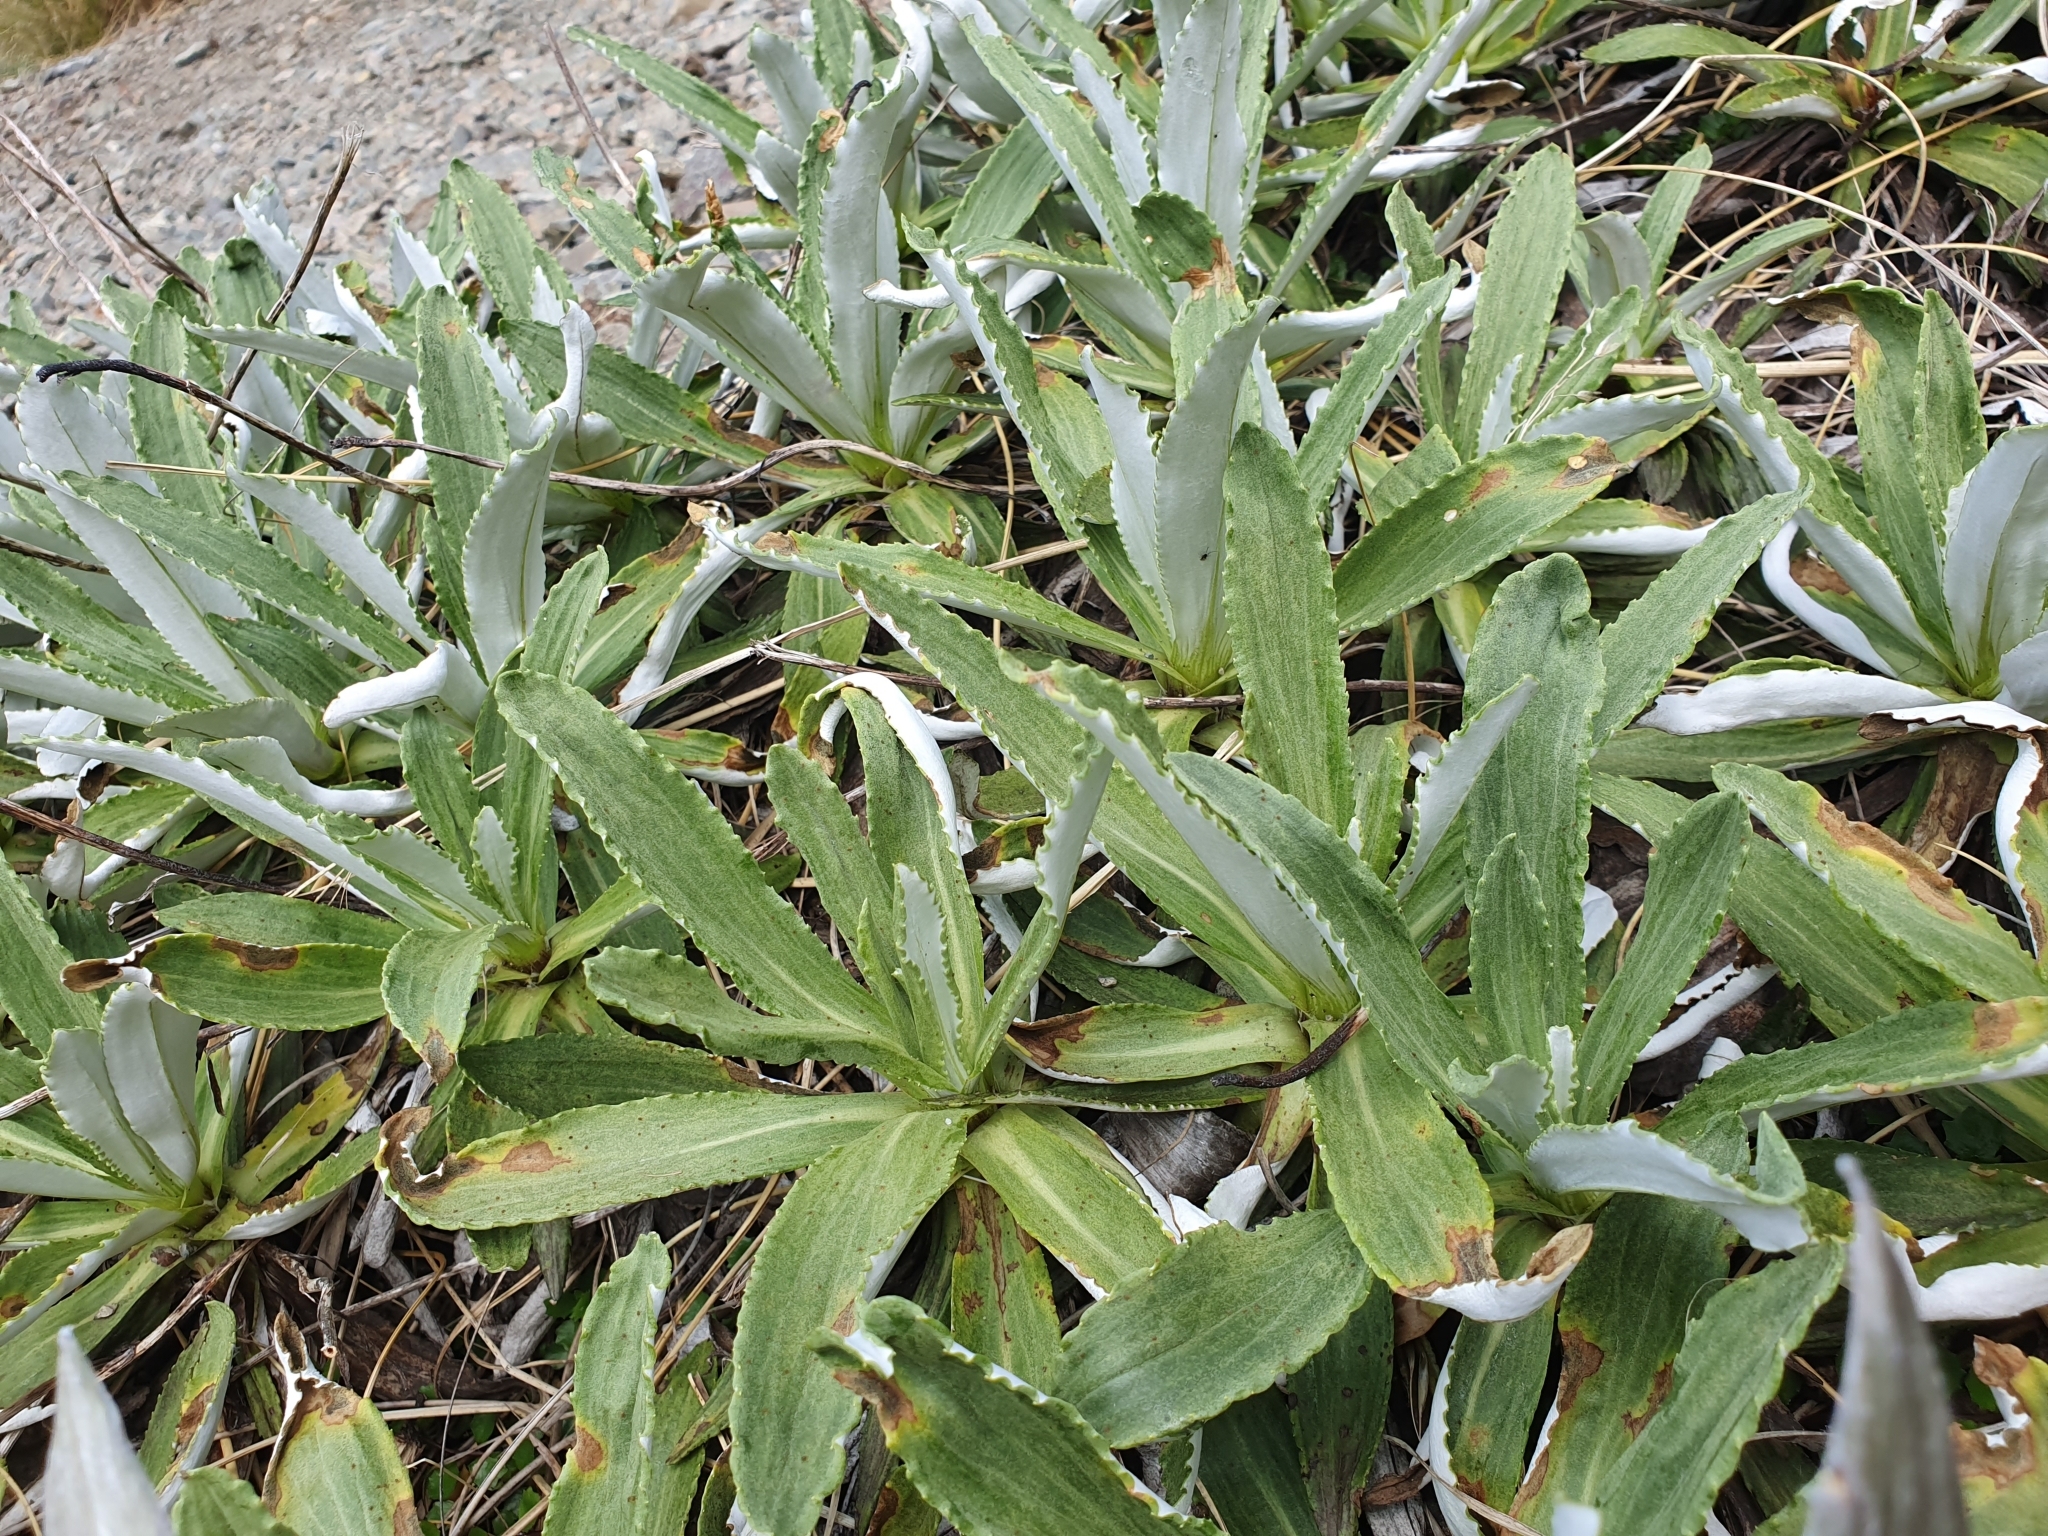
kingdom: Plantae
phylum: Tracheophyta
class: Magnoliopsida
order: Asterales
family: Asteraceae
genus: Celmisia
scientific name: Celmisia densiflora
